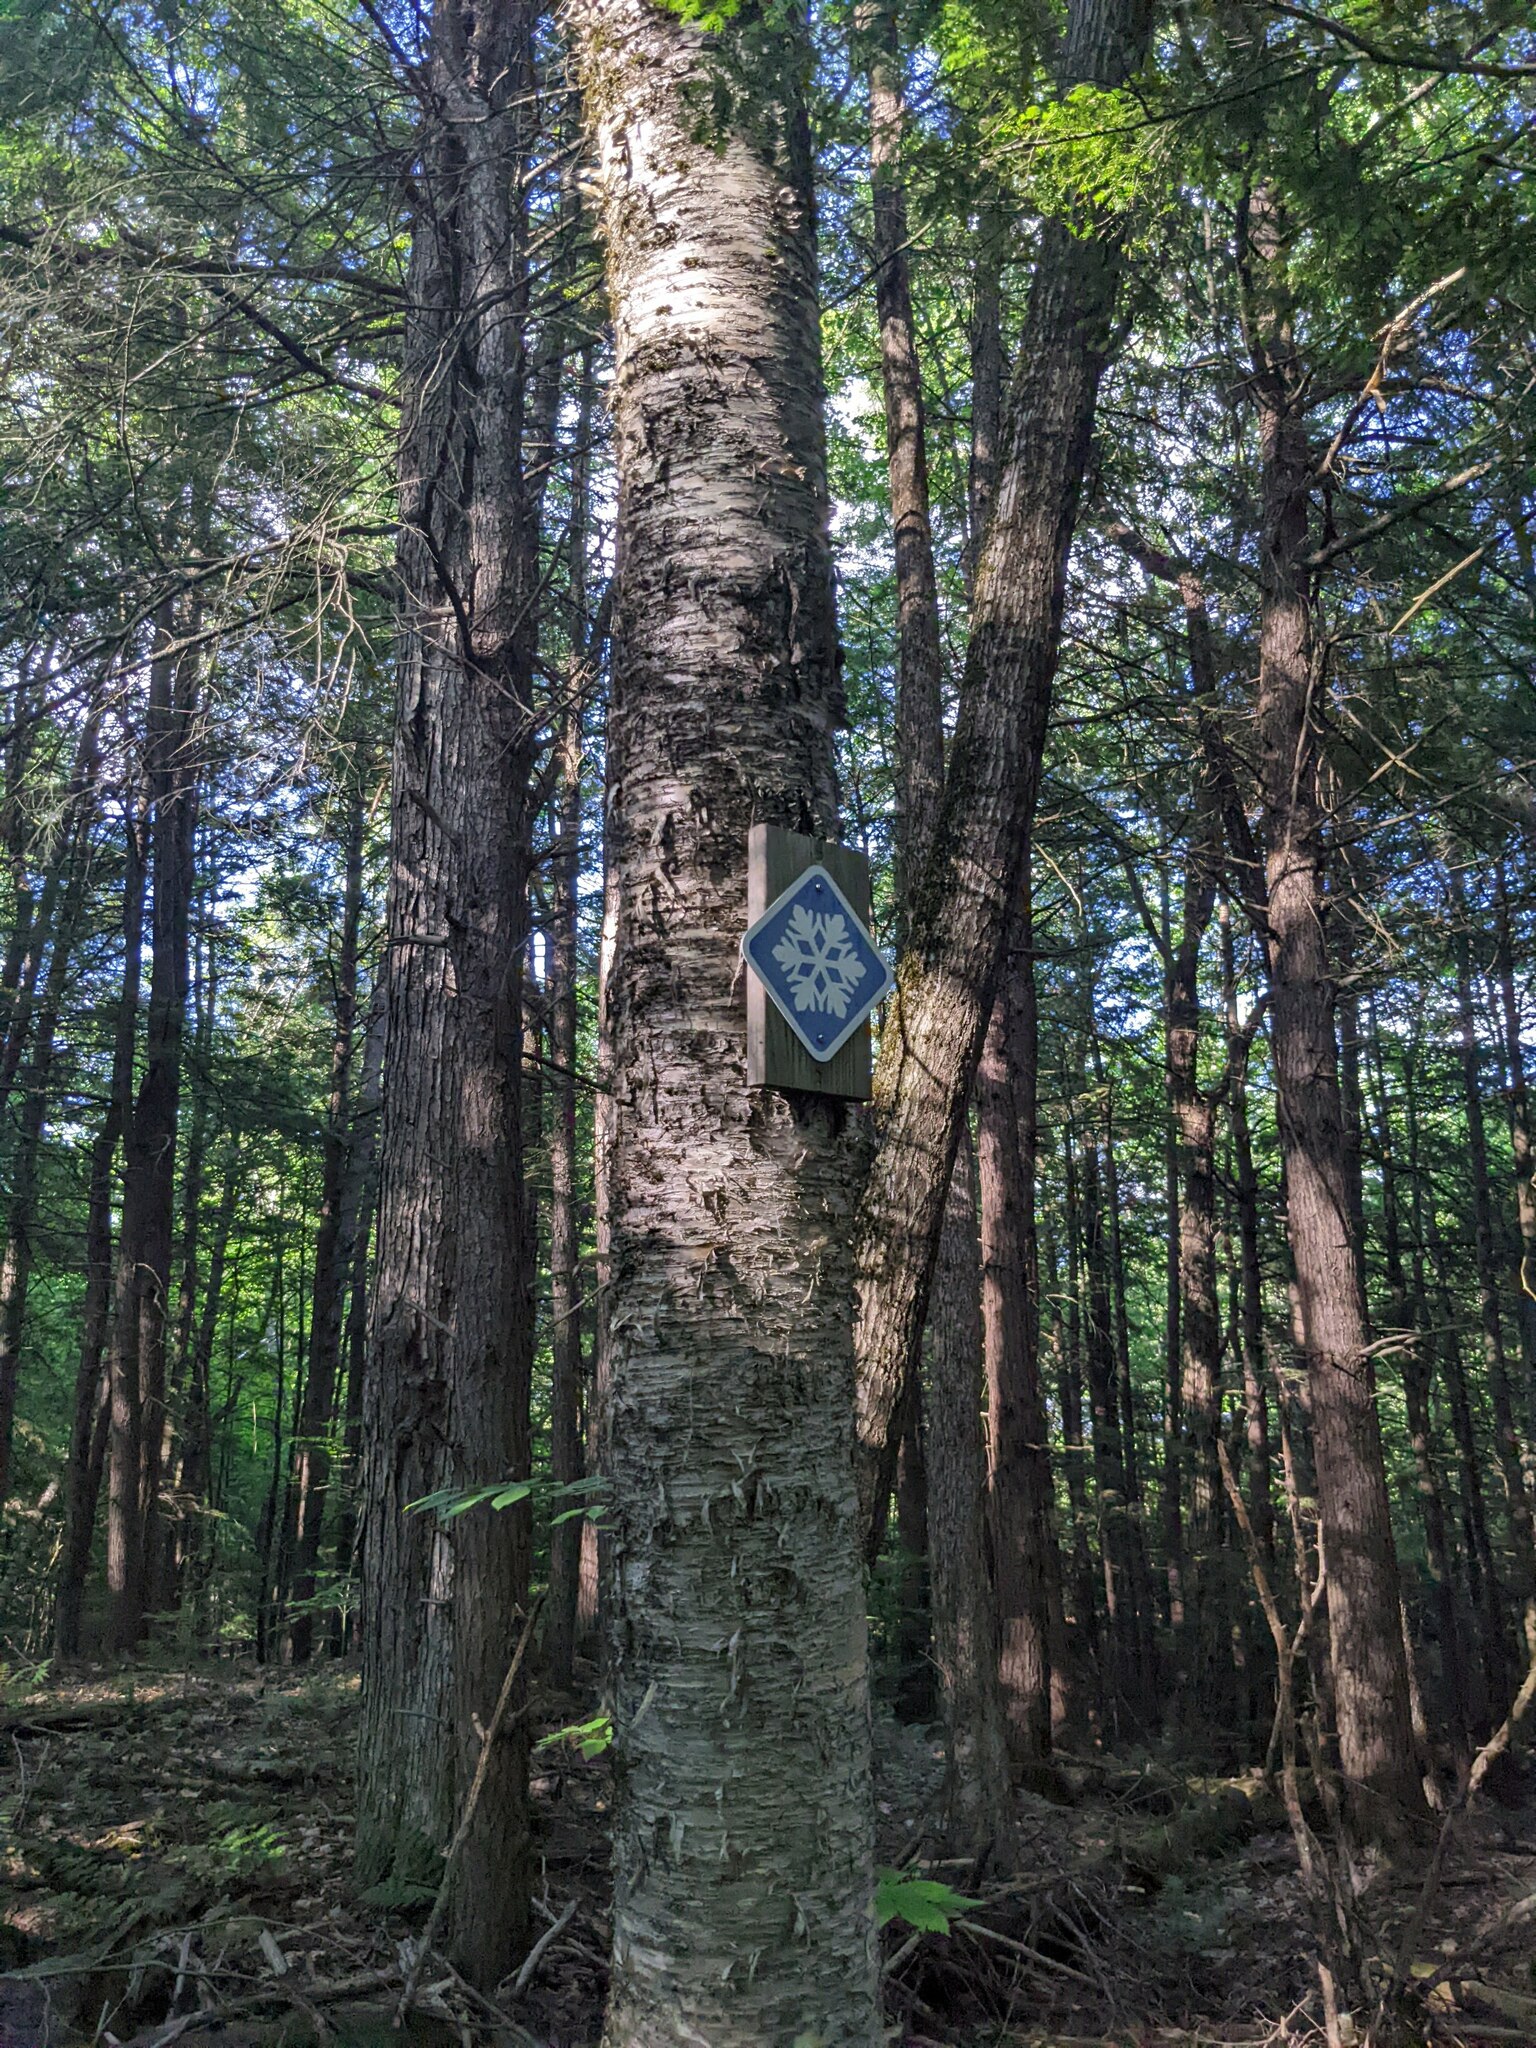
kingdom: Plantae
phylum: Tracheophyta
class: Magnoliopsida
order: Fagales
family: Betulaceae
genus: Betula
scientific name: Betula alleghaniensis
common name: Yellow birch
